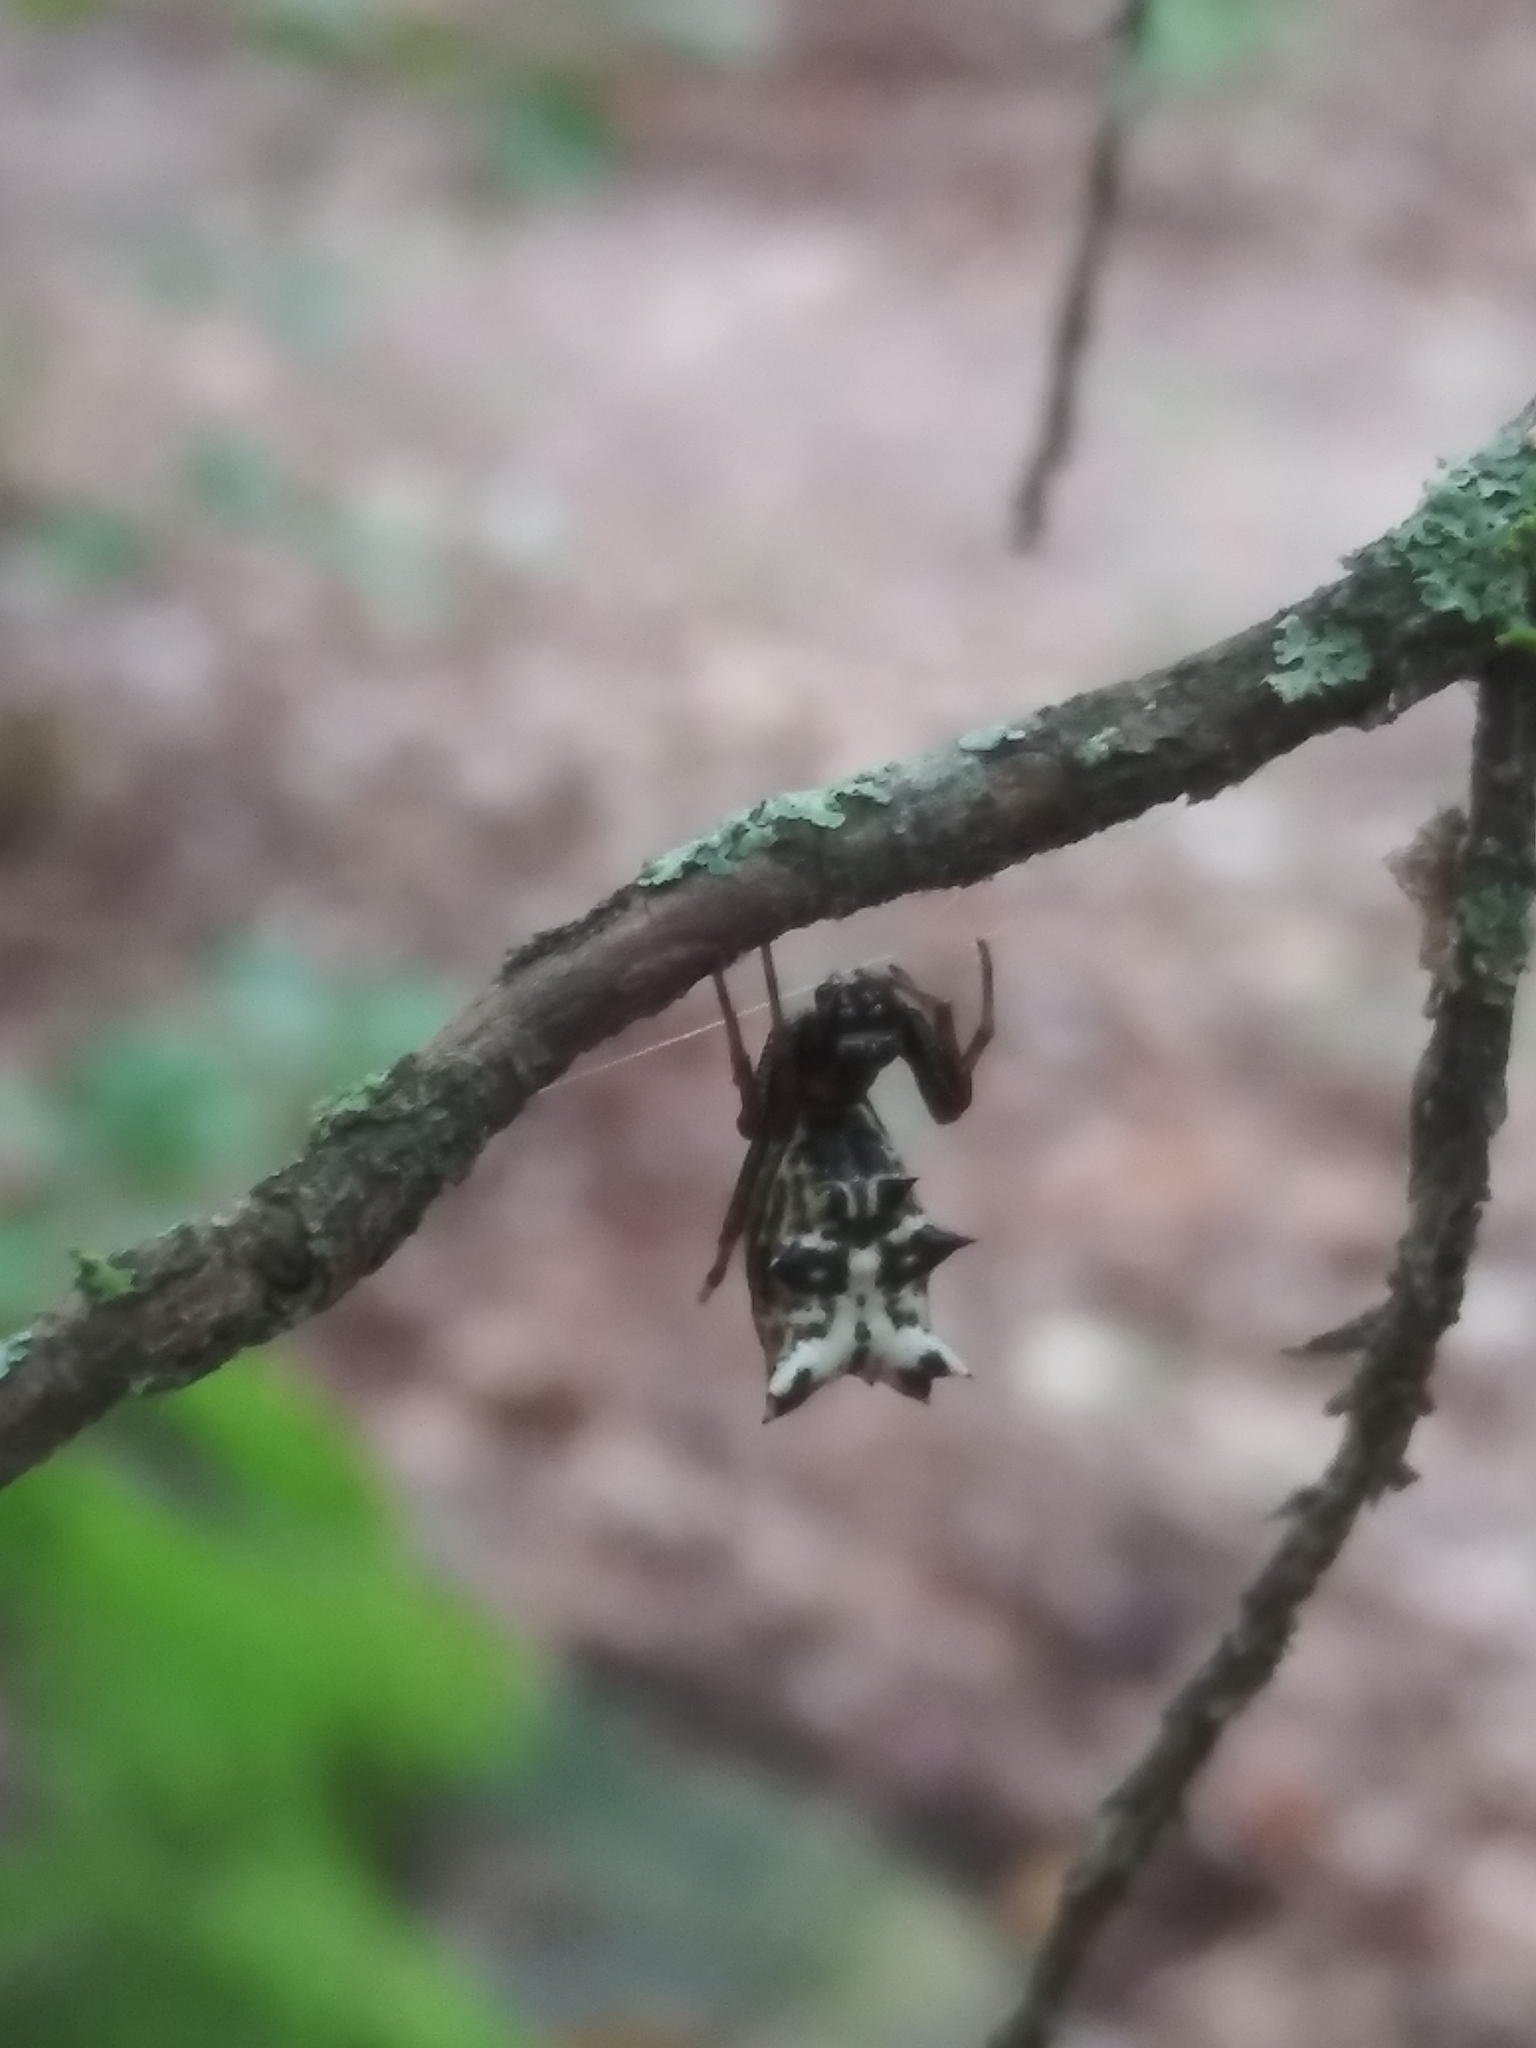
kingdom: Animalia
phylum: Arthropoda
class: Arachnida
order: Araneae
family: Araneidae
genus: Micrathena
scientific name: Micrathena gracilis
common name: Orb weavers
